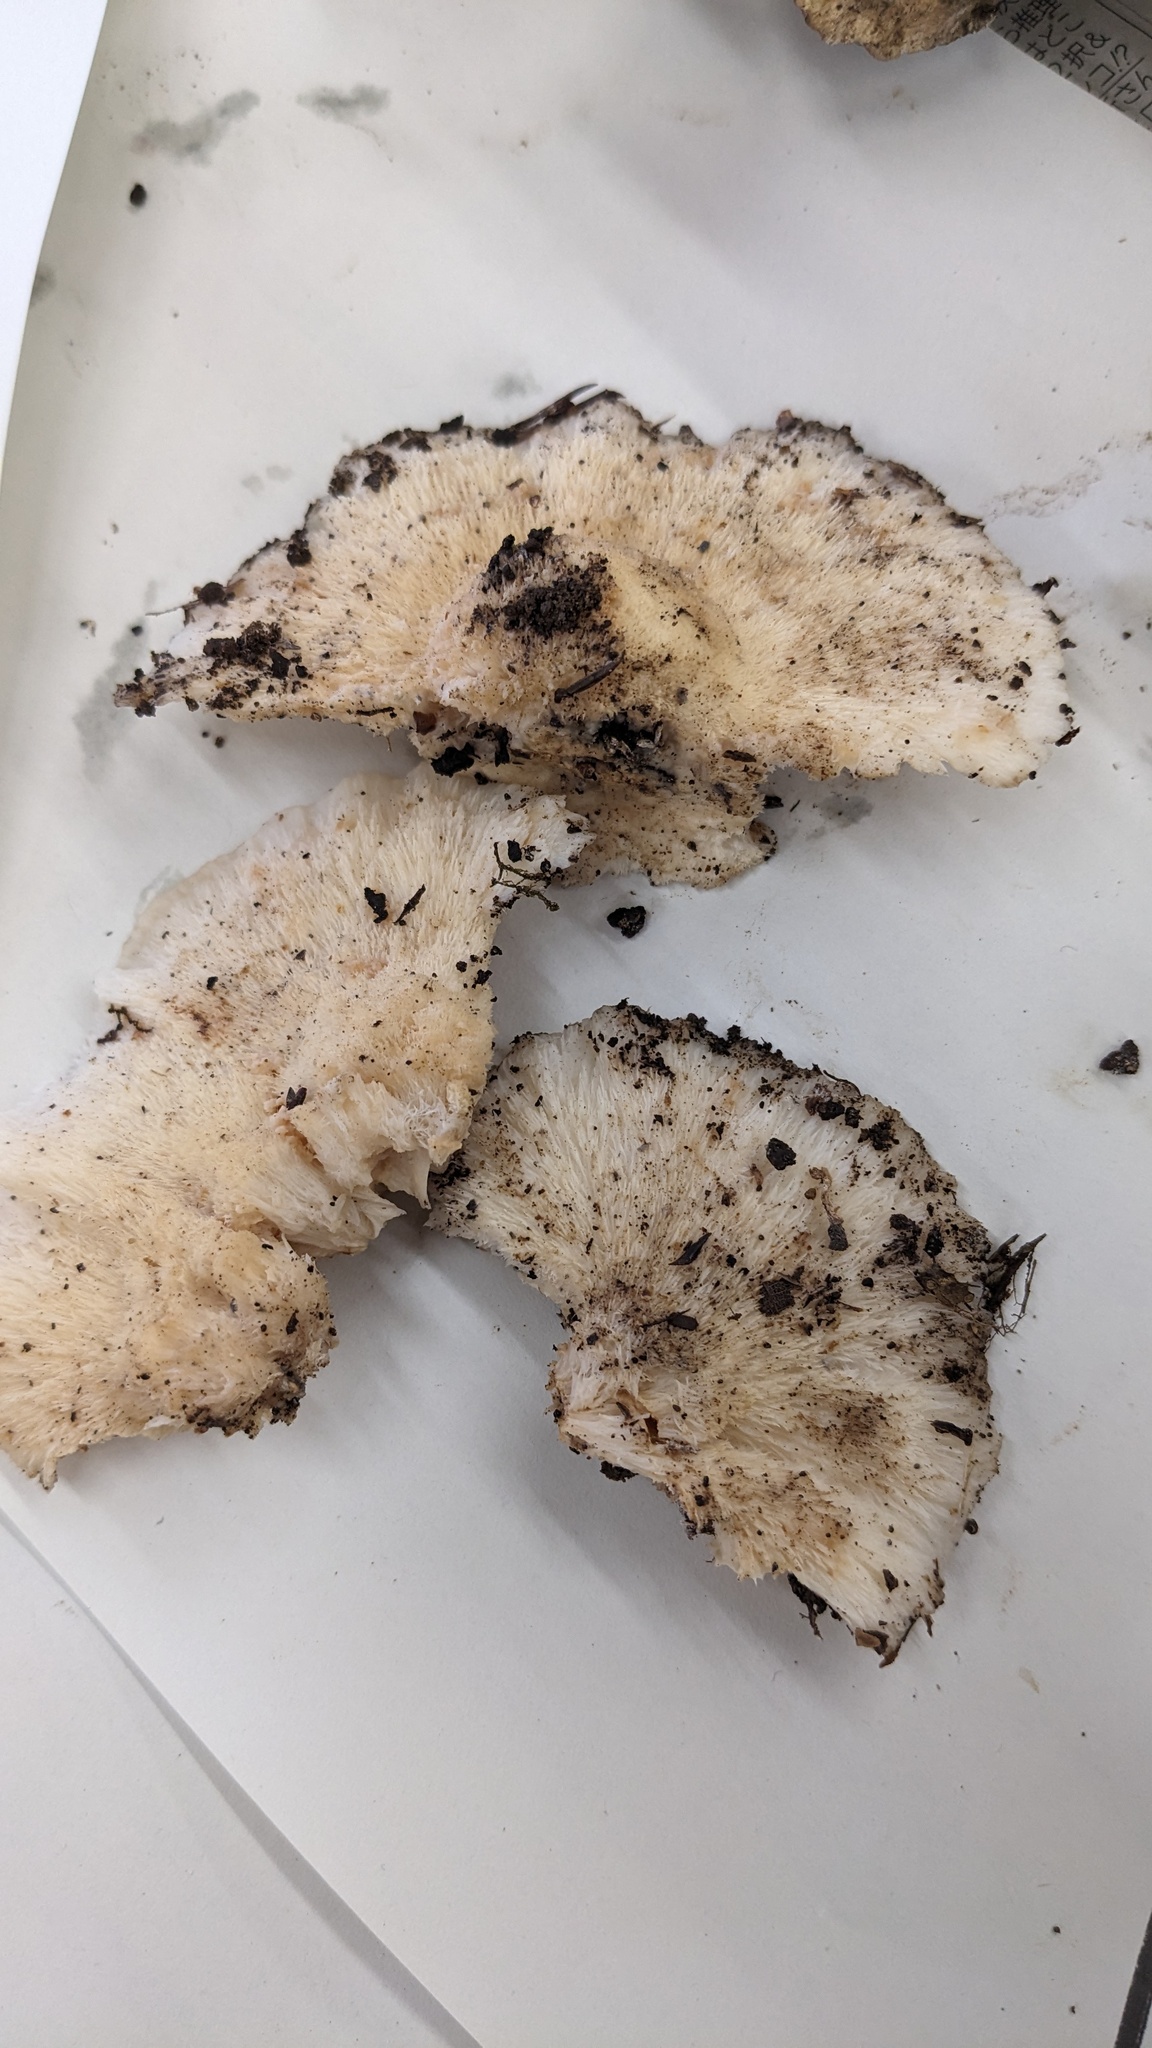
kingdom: Fungi
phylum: Basidiomycota
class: Agaricomycetes
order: Polyporales
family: Meruliaceae
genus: Donkia
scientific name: Donkia pulcherrima
